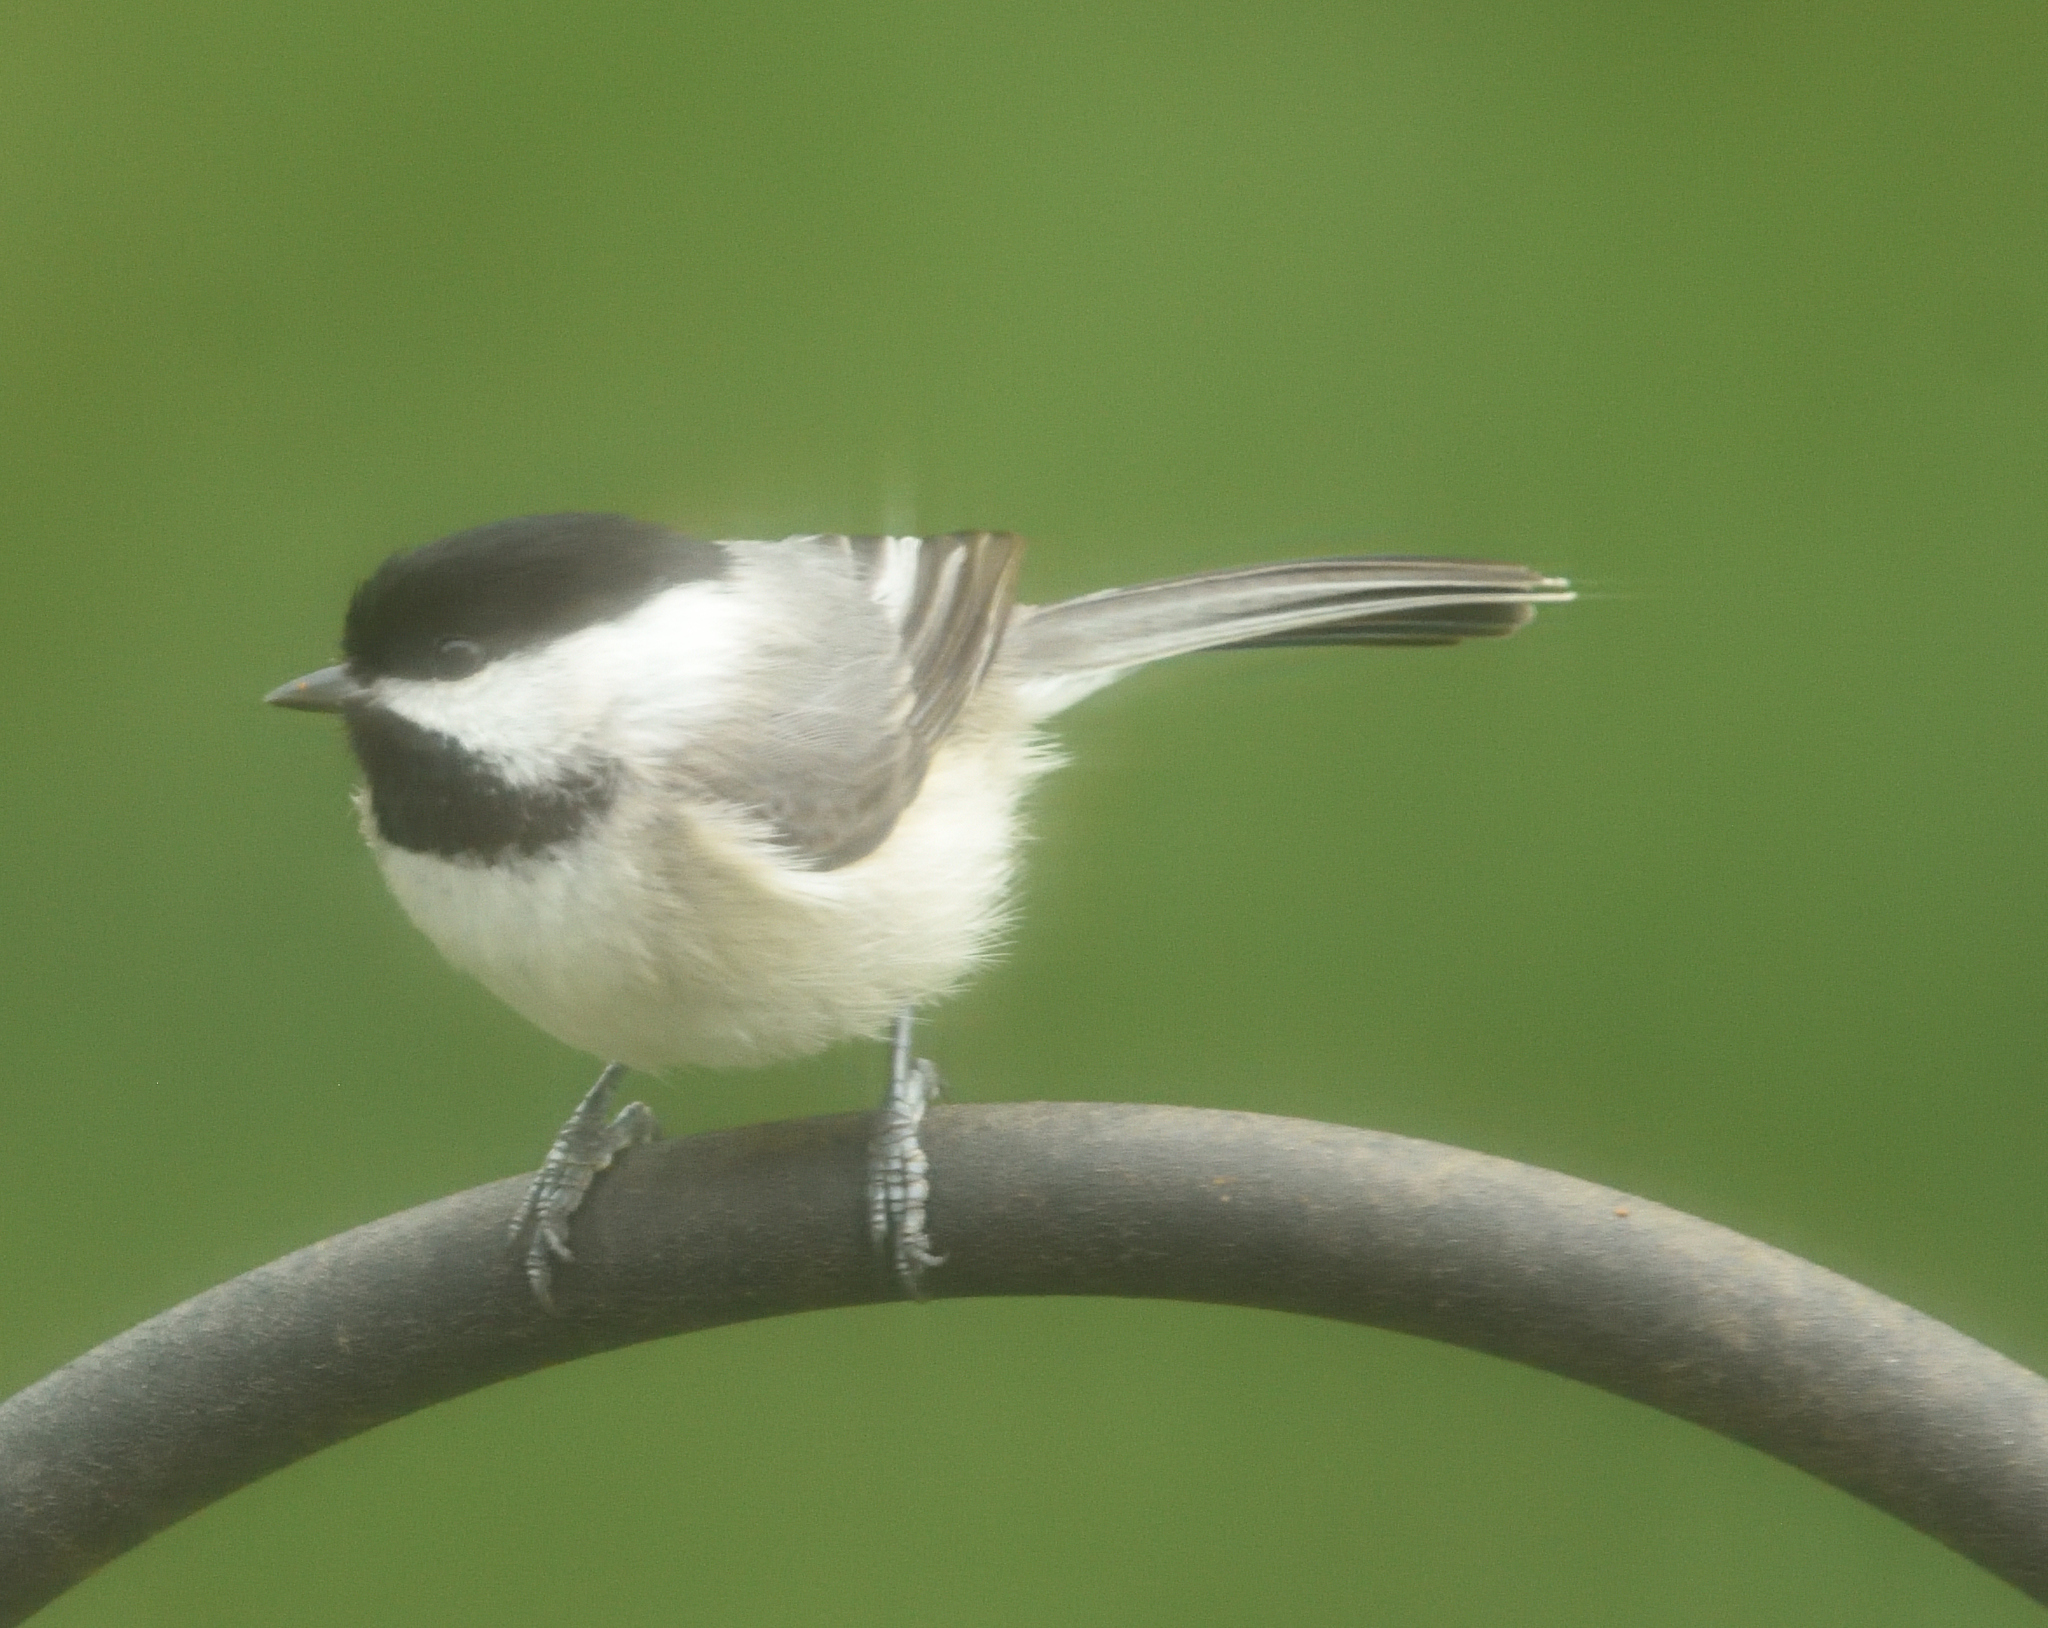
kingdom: Animalia
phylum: Chordata
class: Aves
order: Passeriformes
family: Paridae
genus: Poecile
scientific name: Poecile carolinensis
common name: Carolina chickadee
